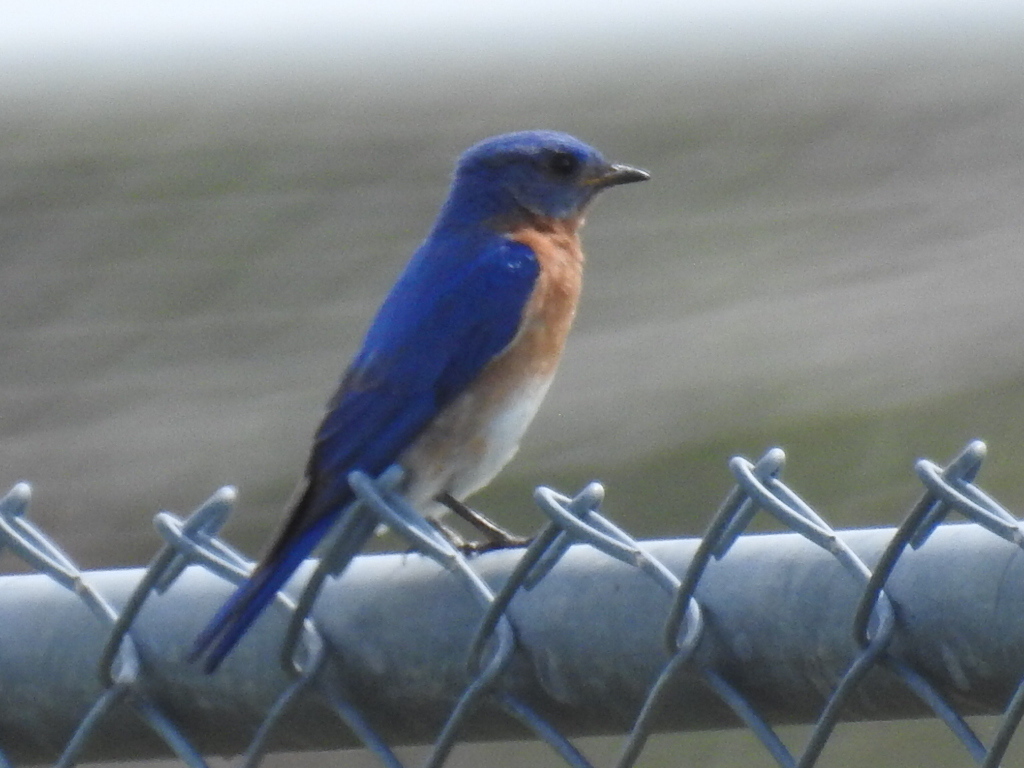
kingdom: Animalia
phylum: Chordata
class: Aves
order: Passeriformes
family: Turdidae
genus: Sialia
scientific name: Sialia sialis
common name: Eastern bluebird
